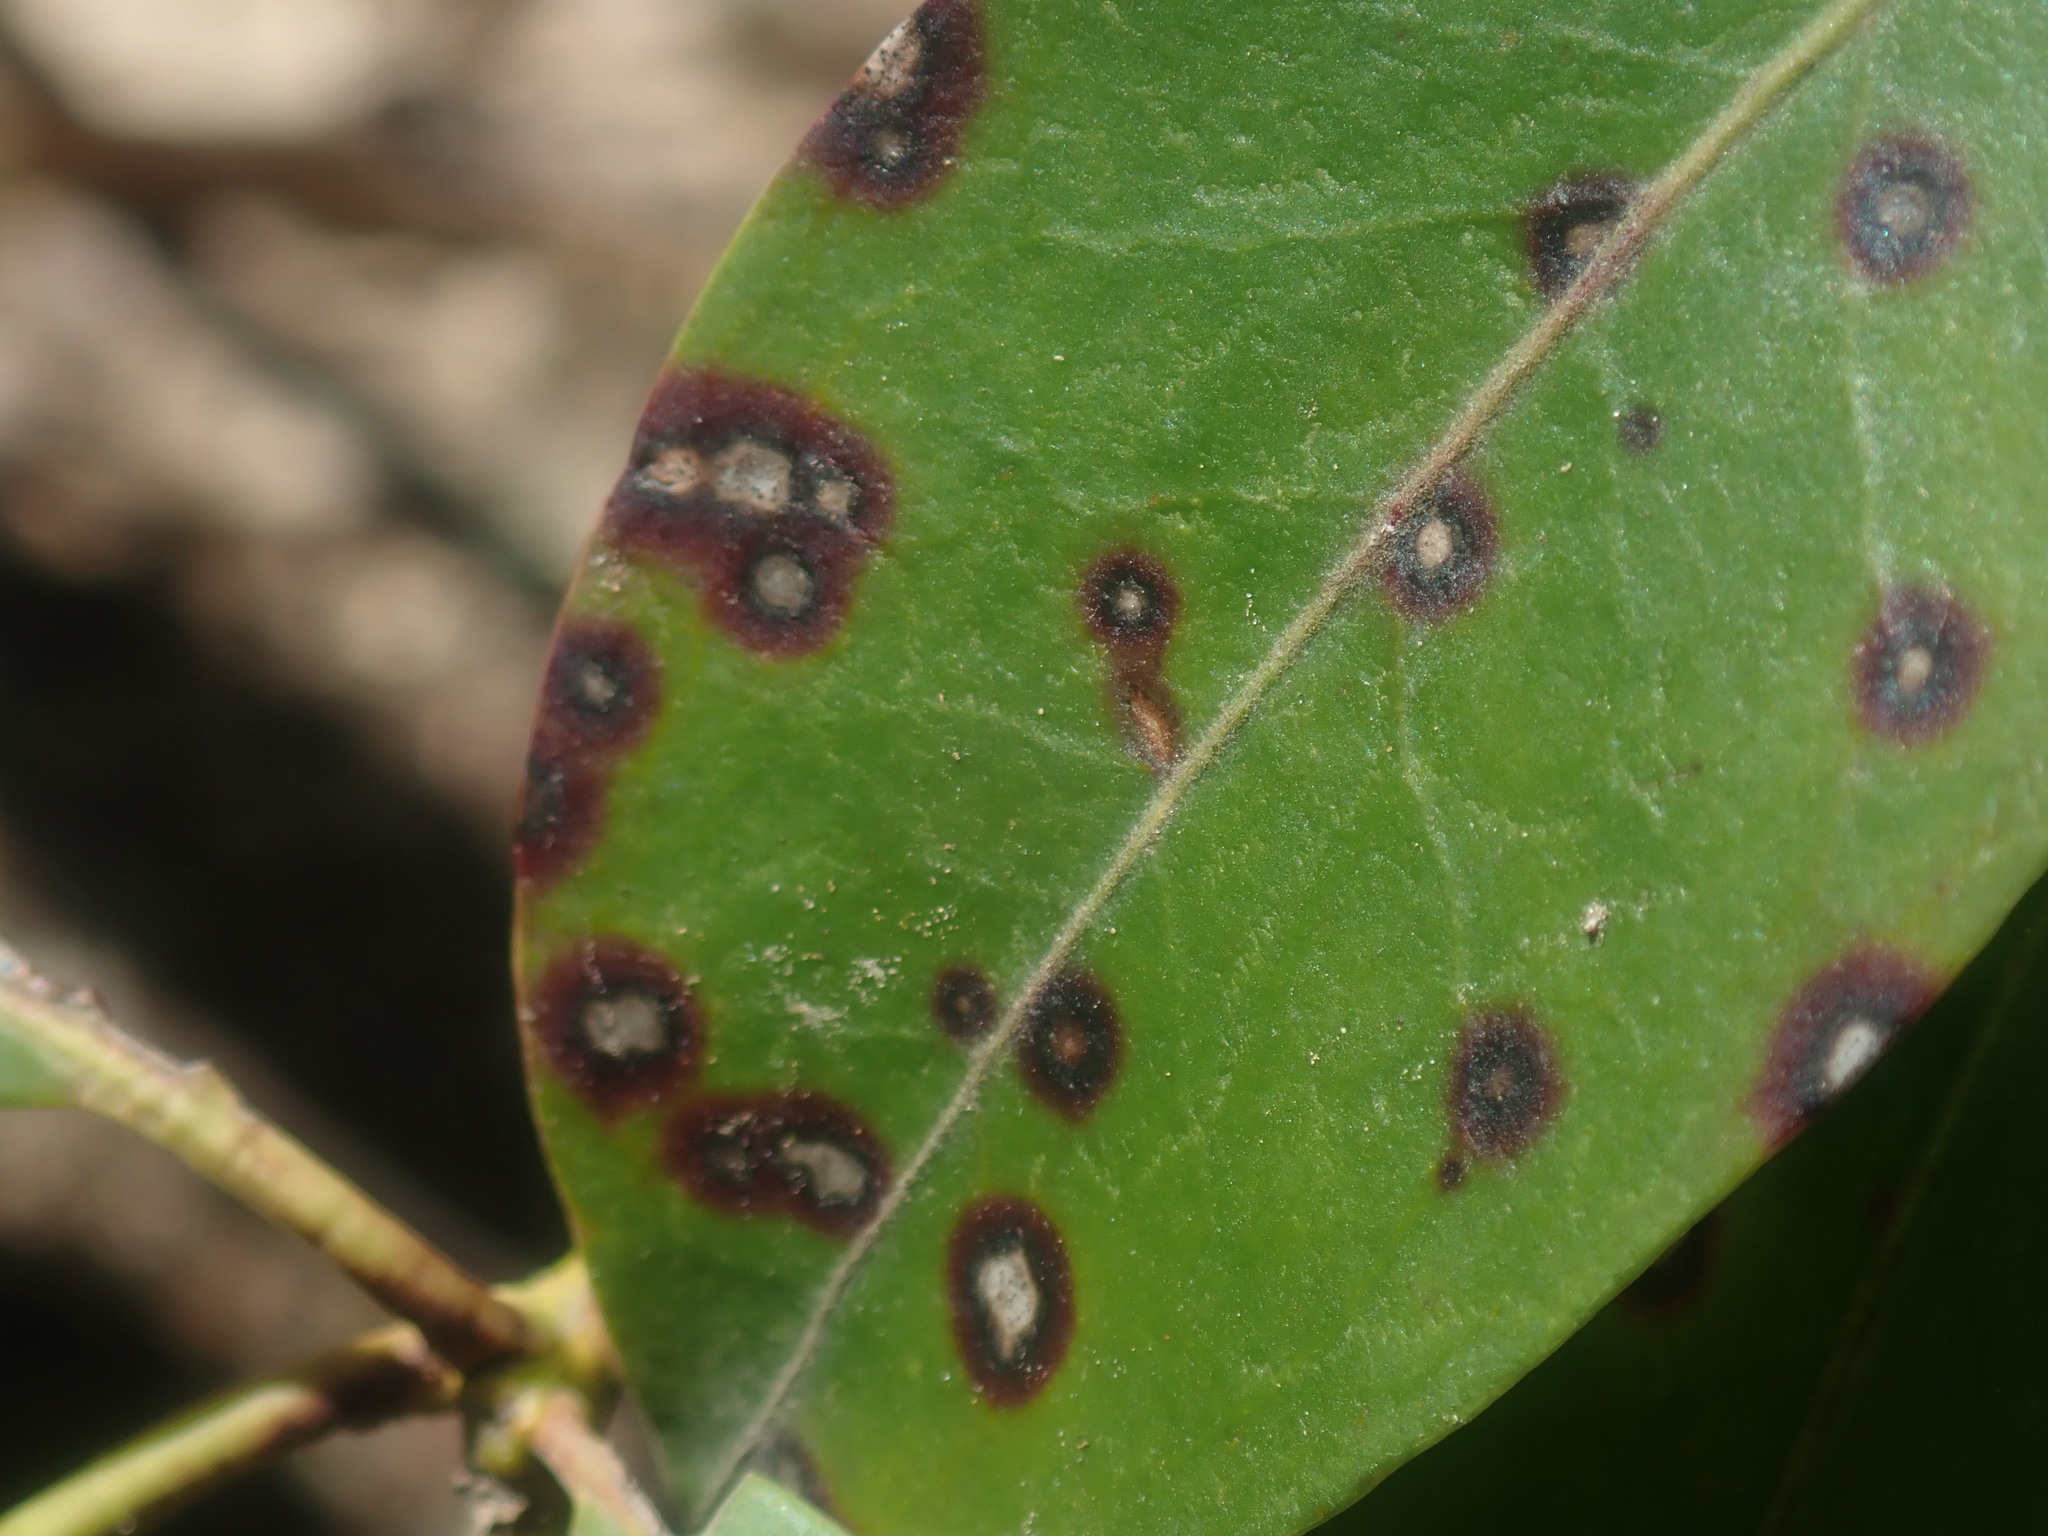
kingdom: Fungi
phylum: Ascomycota
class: Dothideomycetes
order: Mycosphaerellales
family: Mycosphaerellaceae
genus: Mycosphaerella
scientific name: Mycosphaerella colorata
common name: Mountain laurel leaf spot
